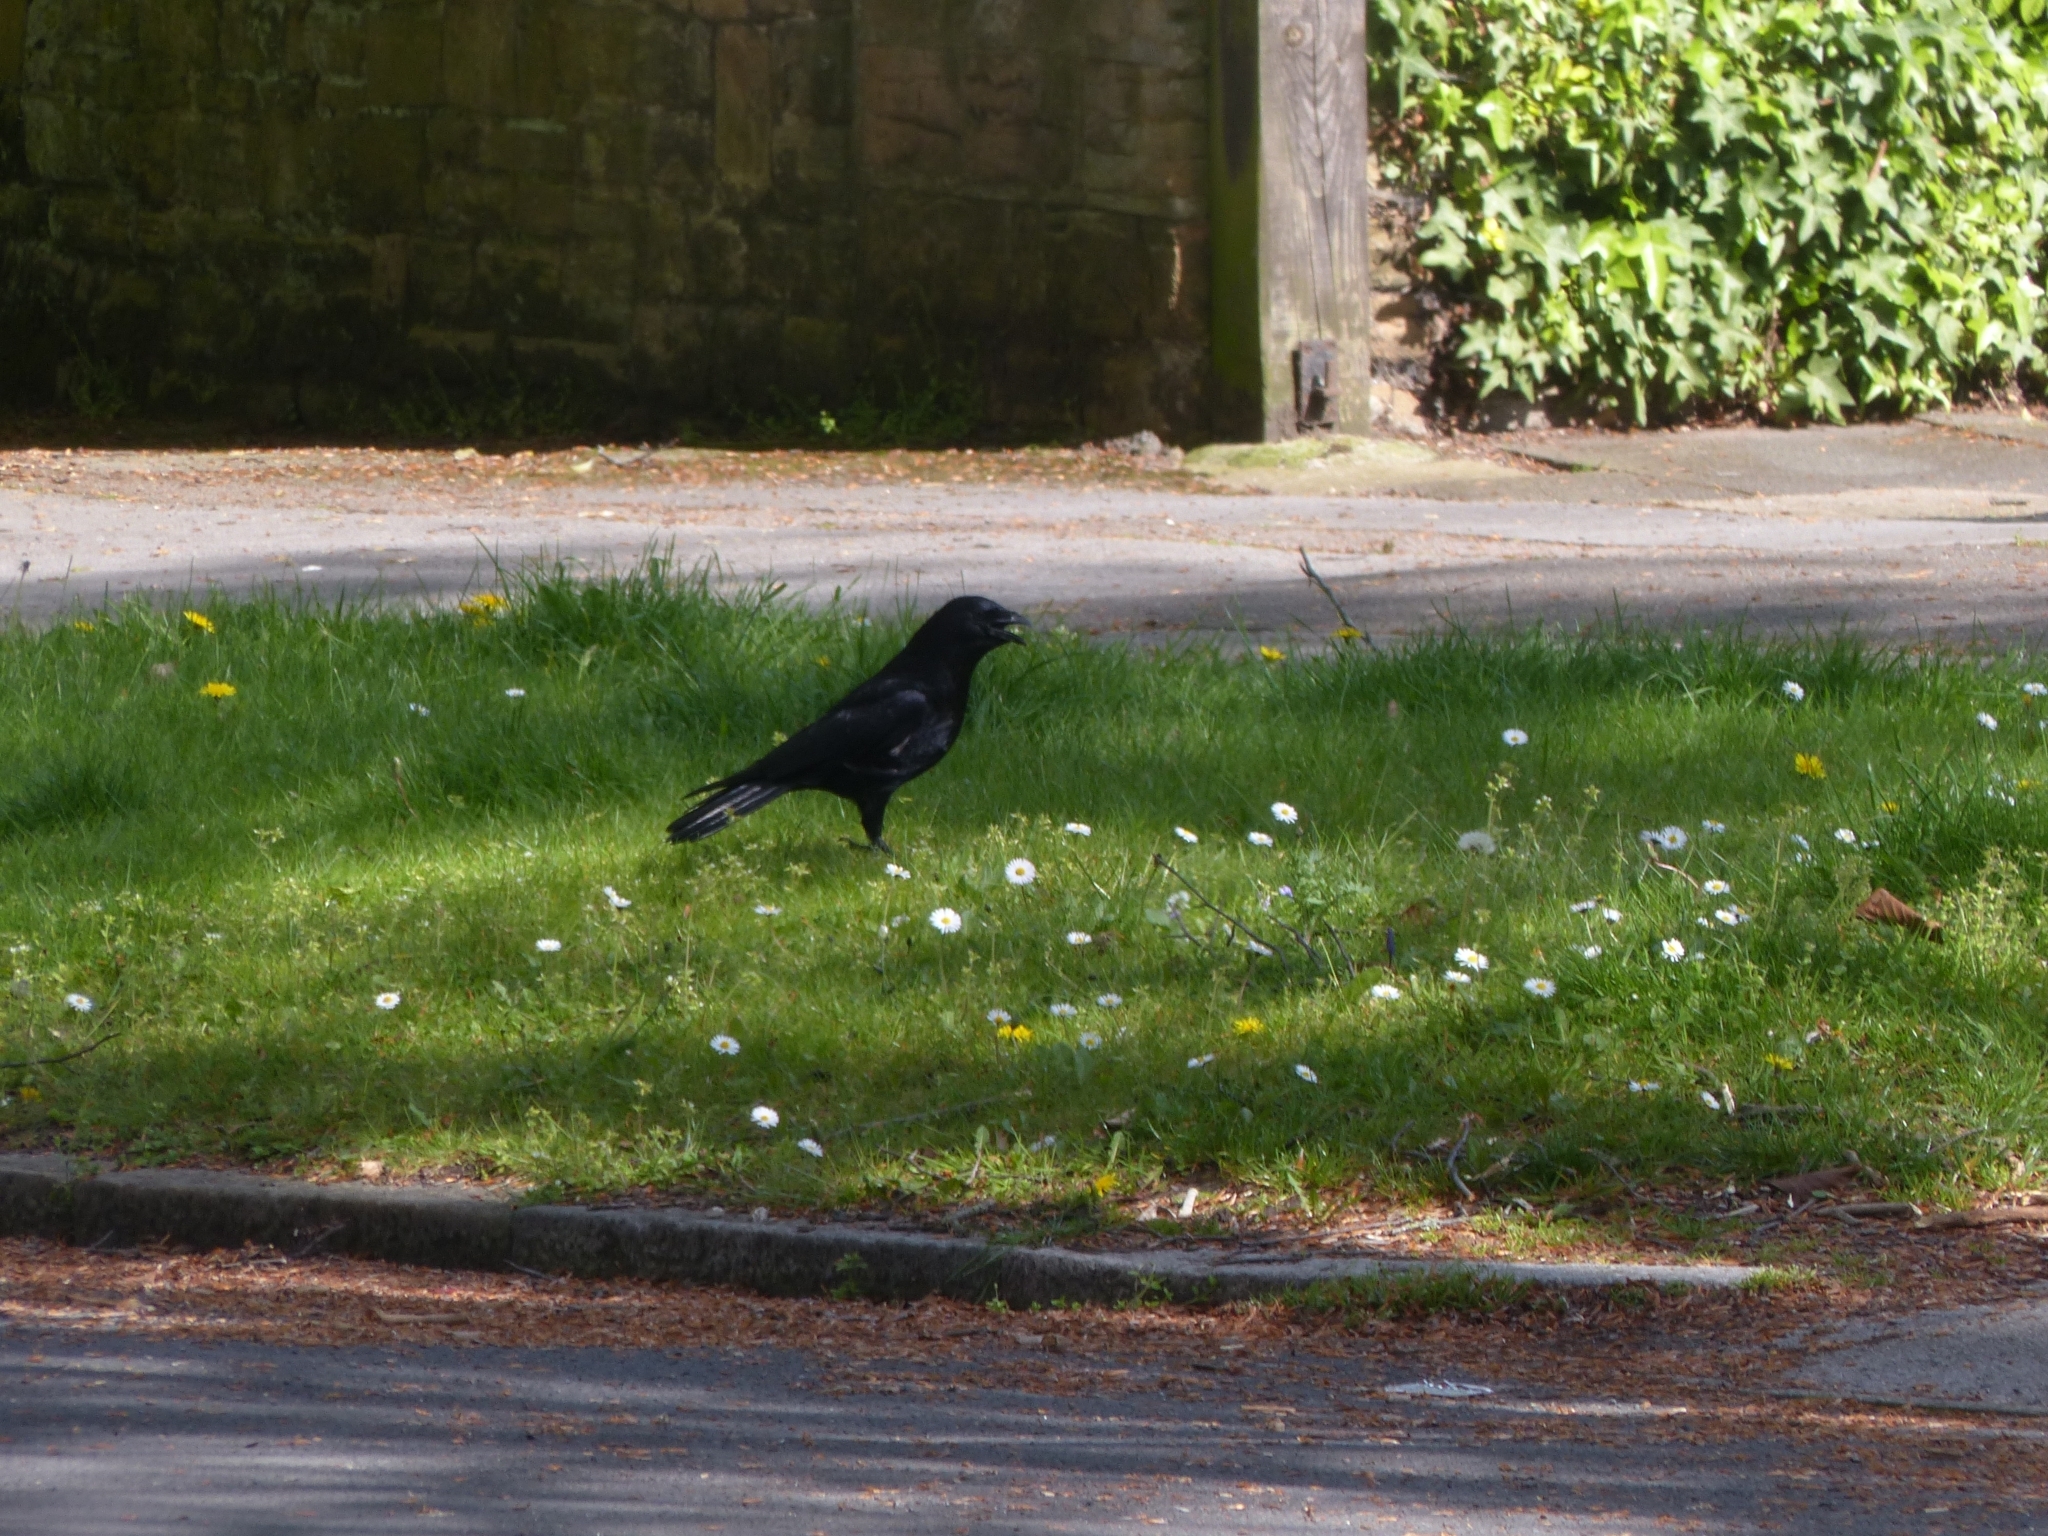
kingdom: Animalia
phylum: Chordata
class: Aves
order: Passeriformes
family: Corvidae
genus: Corvus
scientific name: Corvus corone
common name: Carrion crow
